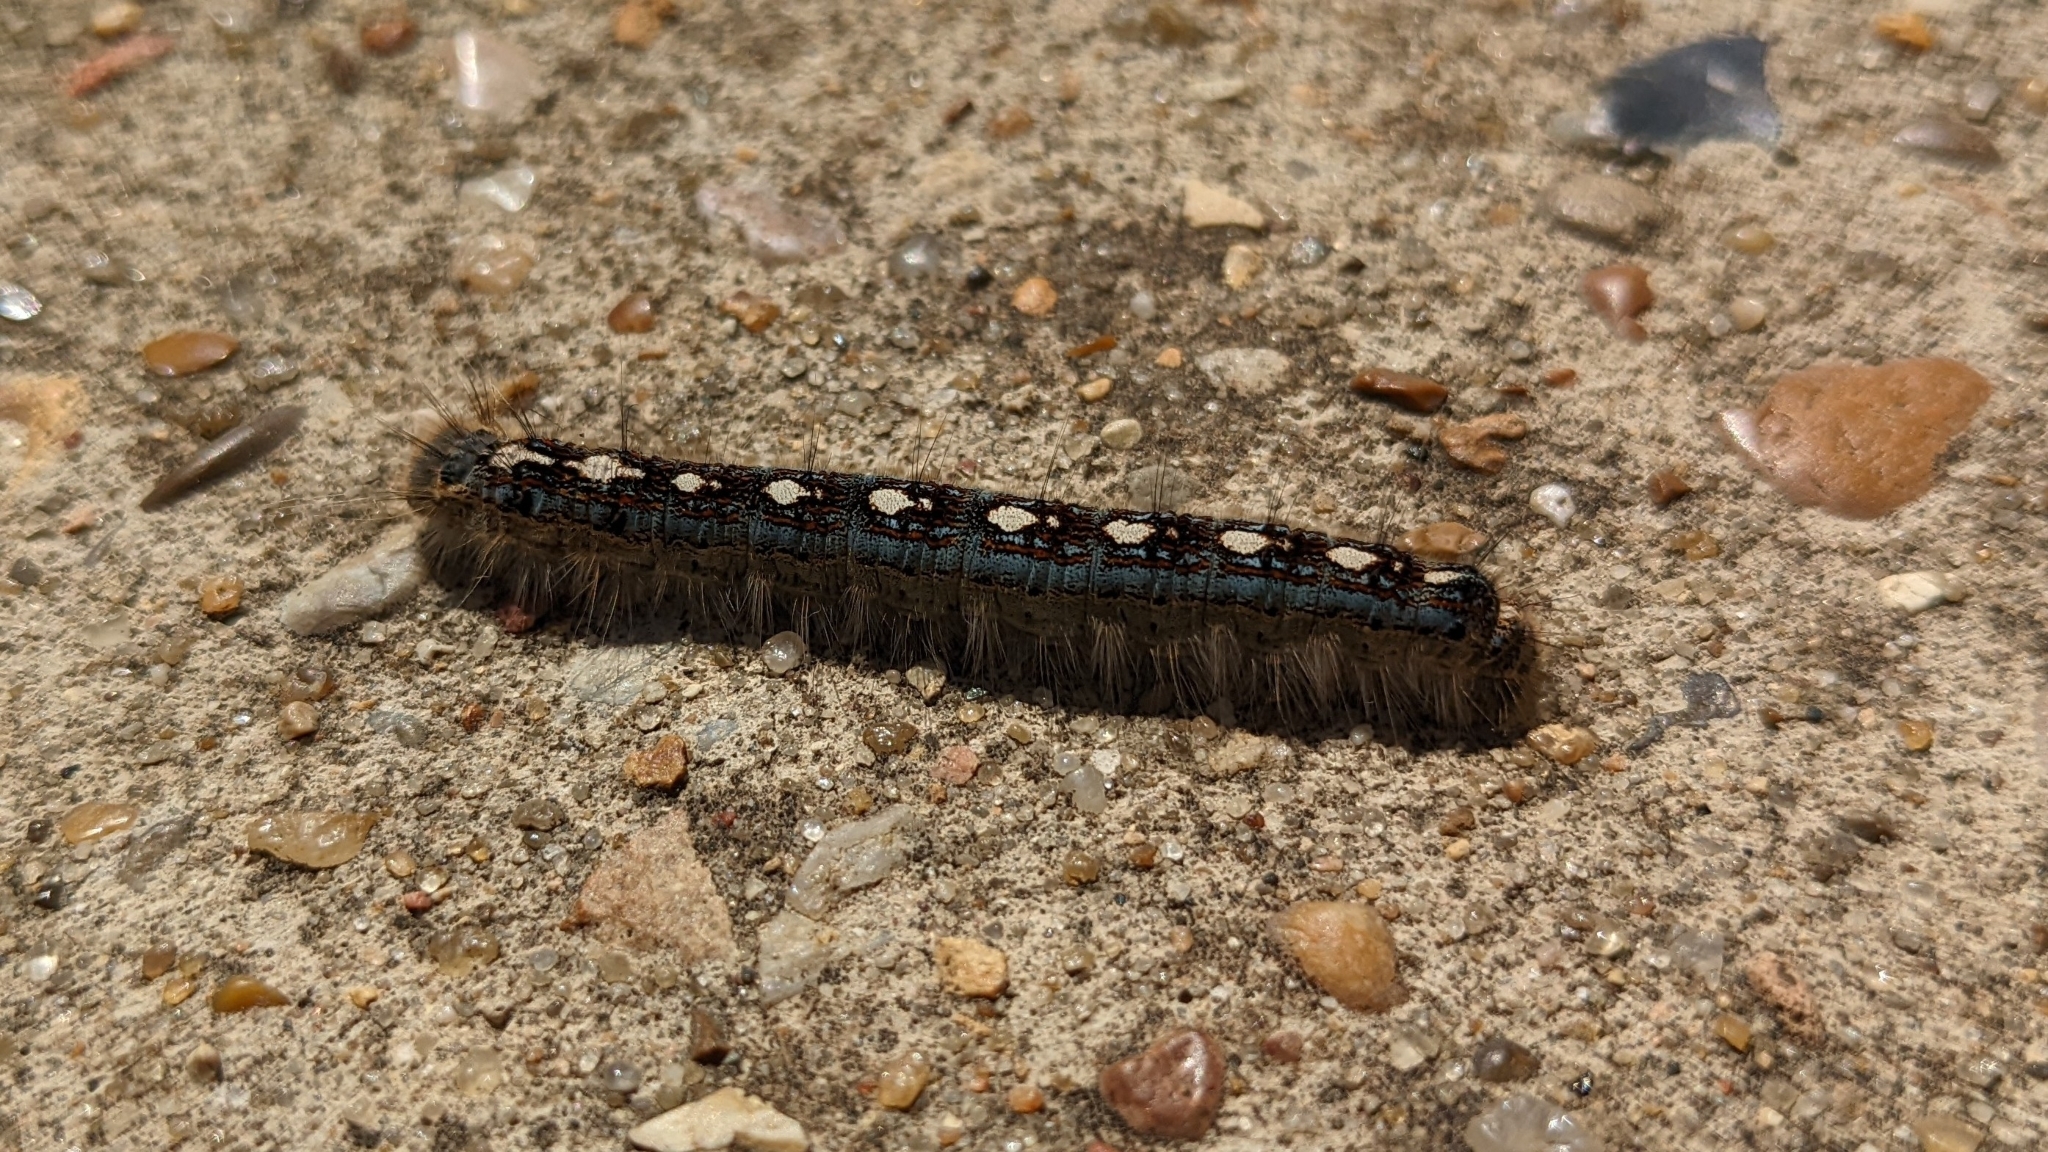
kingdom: Animalia
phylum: Arthropoda
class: Insecta
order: Lepidoptera
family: Lasiocampidae
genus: Malacosoma
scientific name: Malacosoma disstria
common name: Forest tent caterpillar
